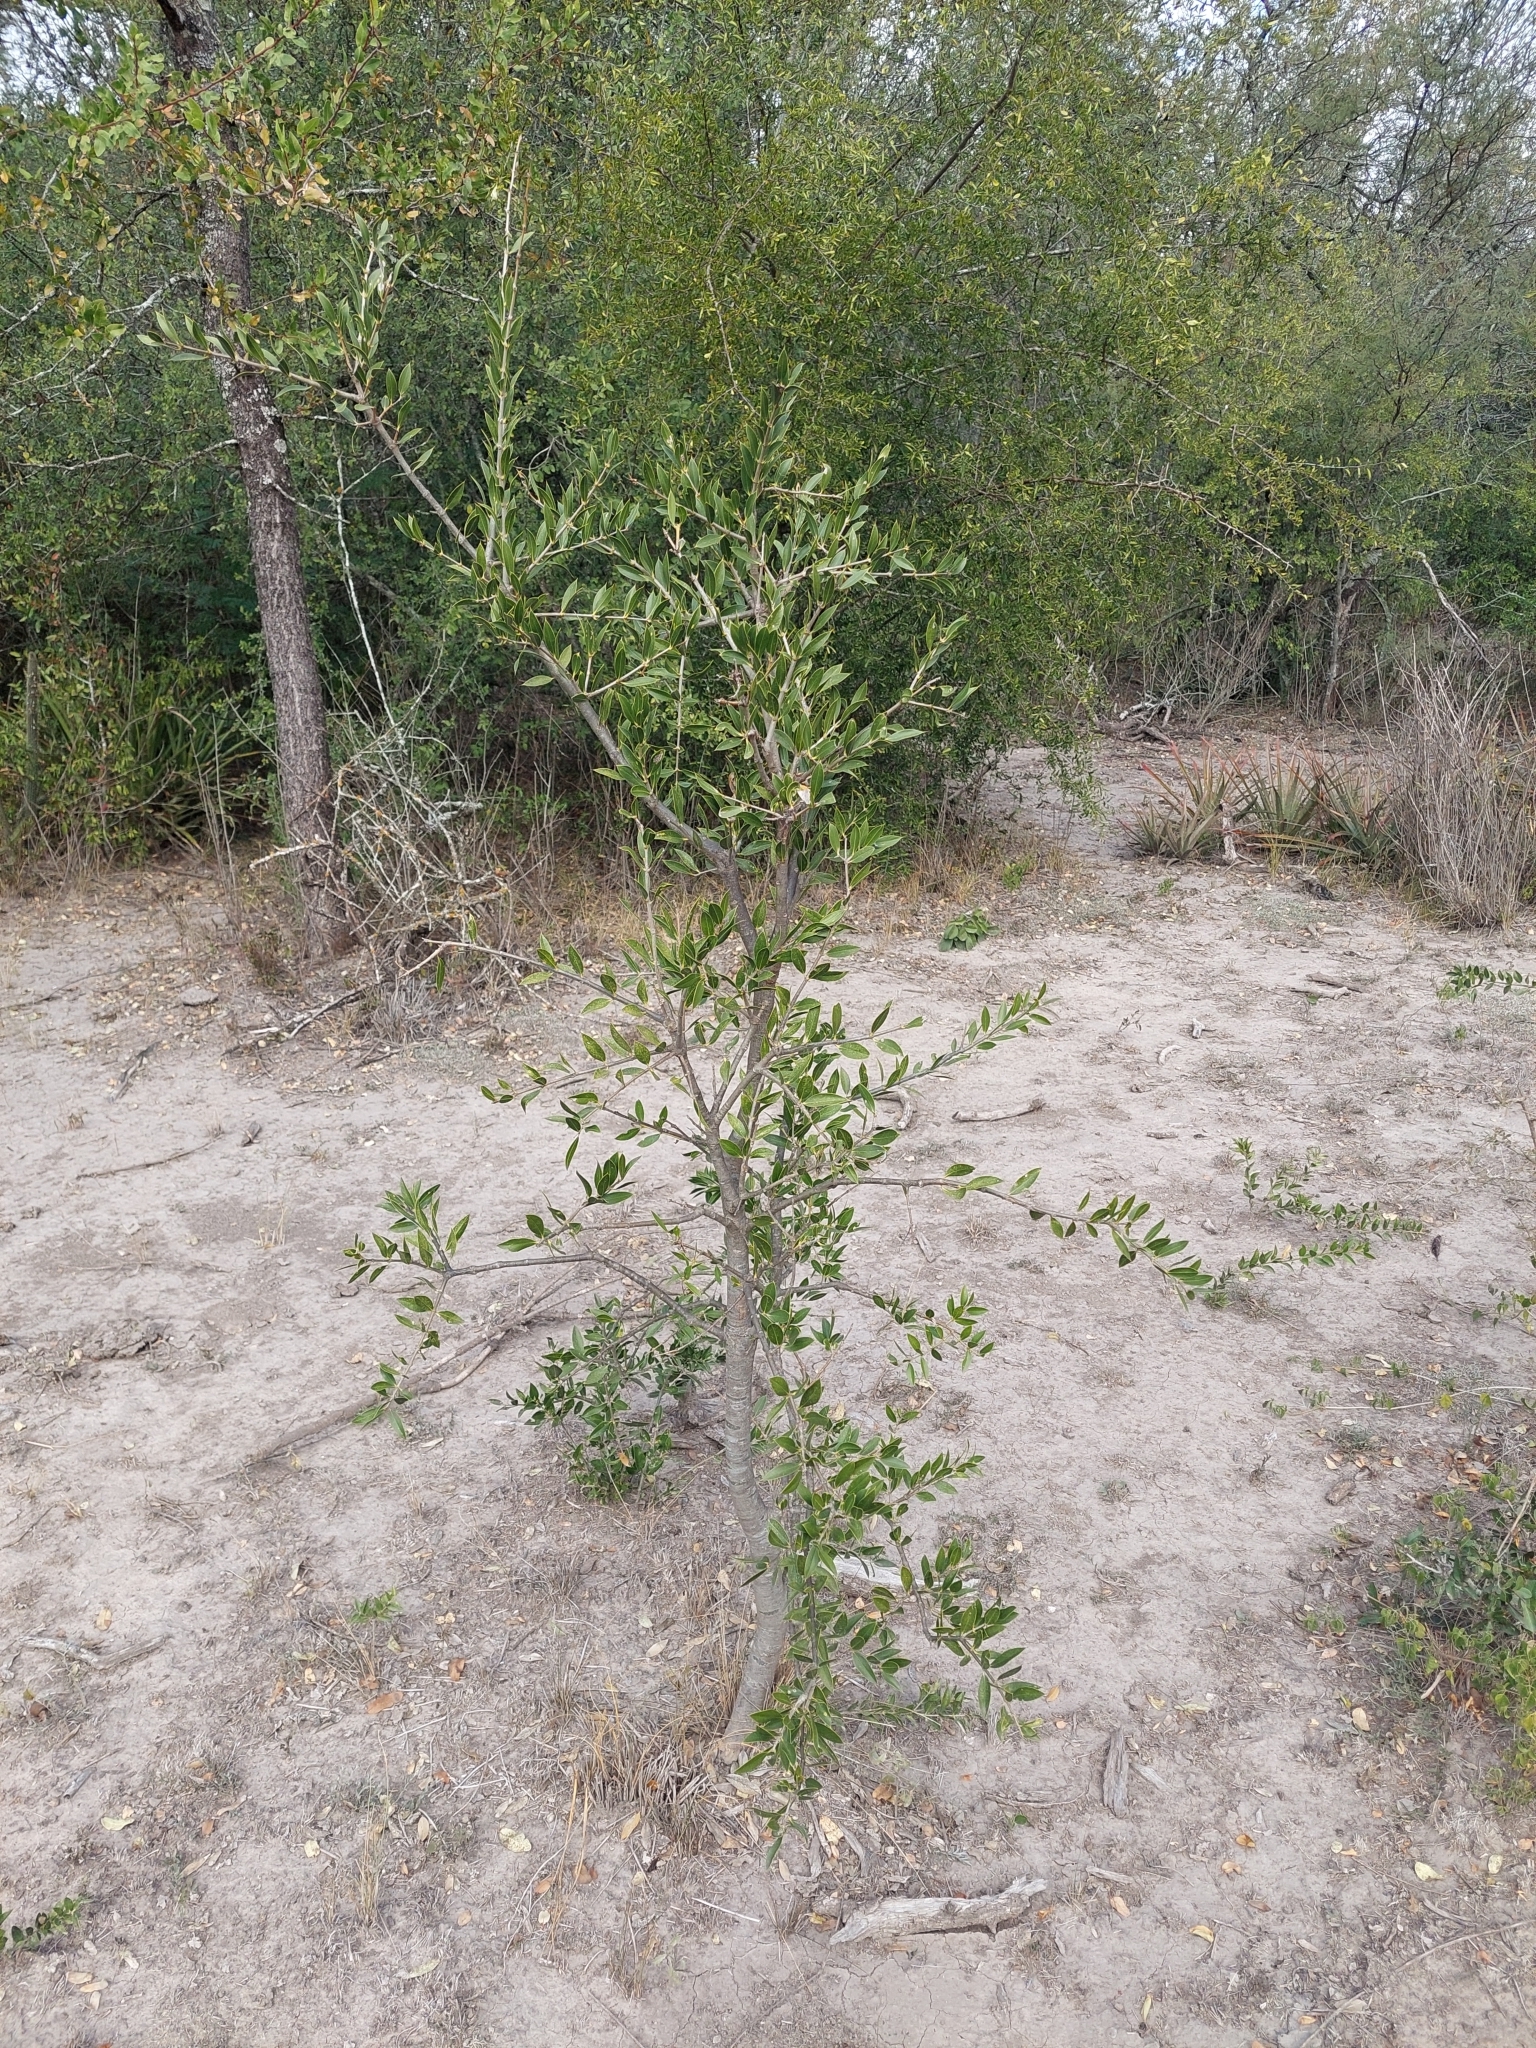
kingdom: Plantae
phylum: Tracheophyta
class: Magnoliopsida
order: Gentianales
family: Apocynaceae
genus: Aspidosperma
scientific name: Aspidosperma quebracho-blanco
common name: White quebracho
